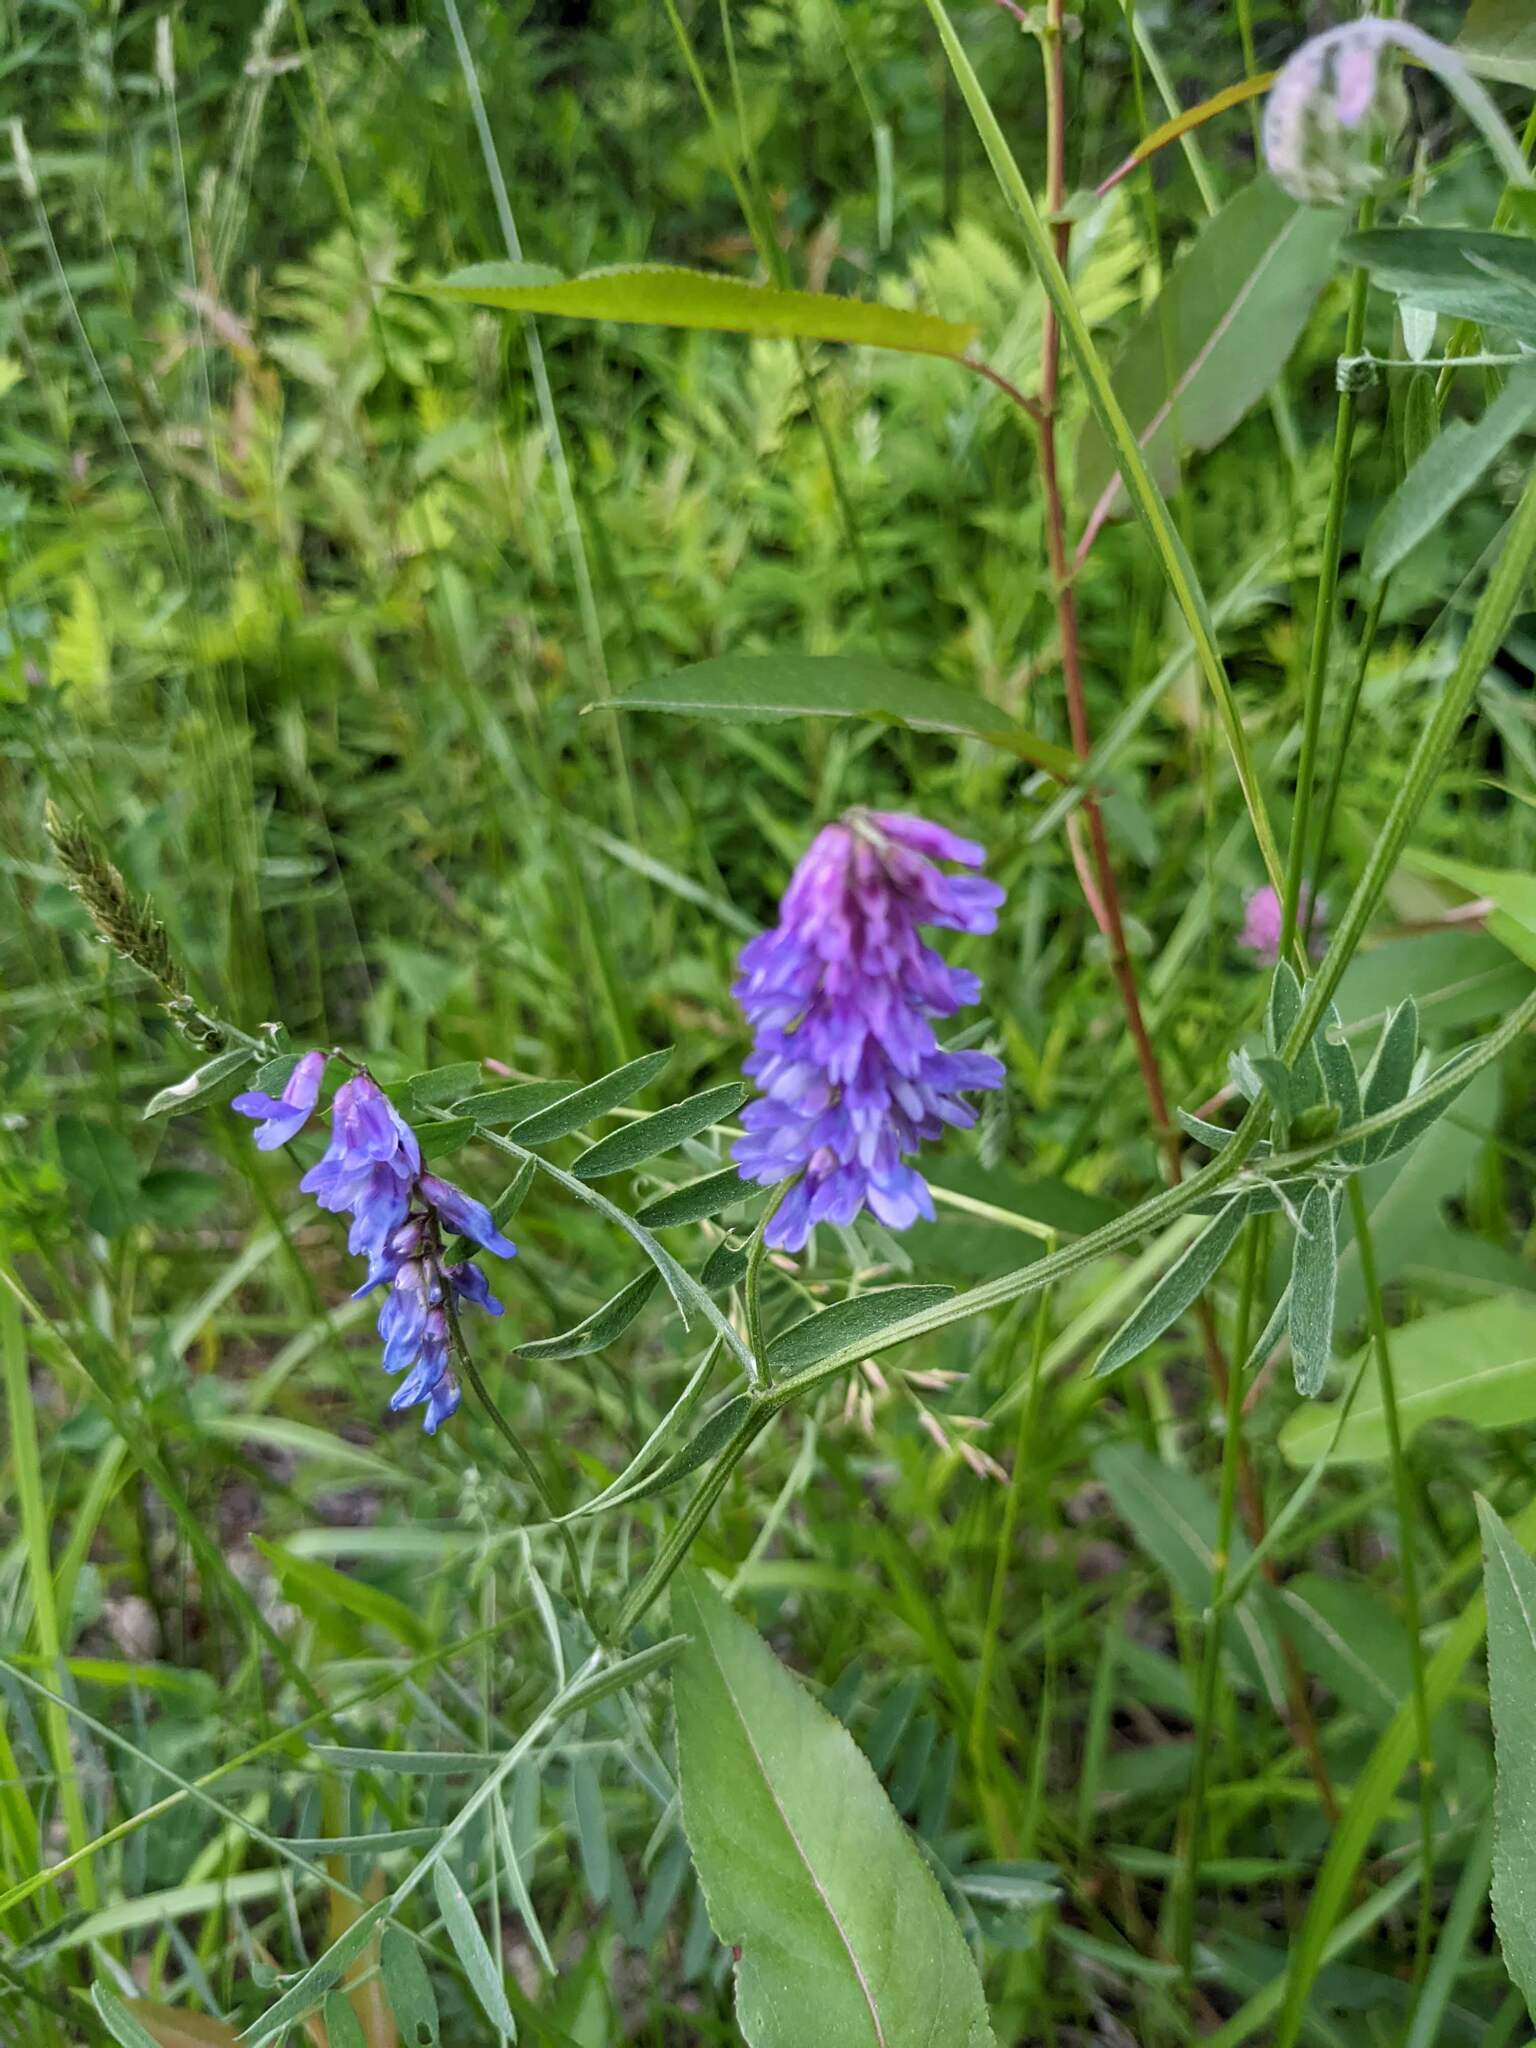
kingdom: Plantae
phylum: Tracheophyta
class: Magnoliopsida
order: Fabales
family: Fabaceae
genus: Vicia
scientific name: Vicia cracca
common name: Bird vetch
